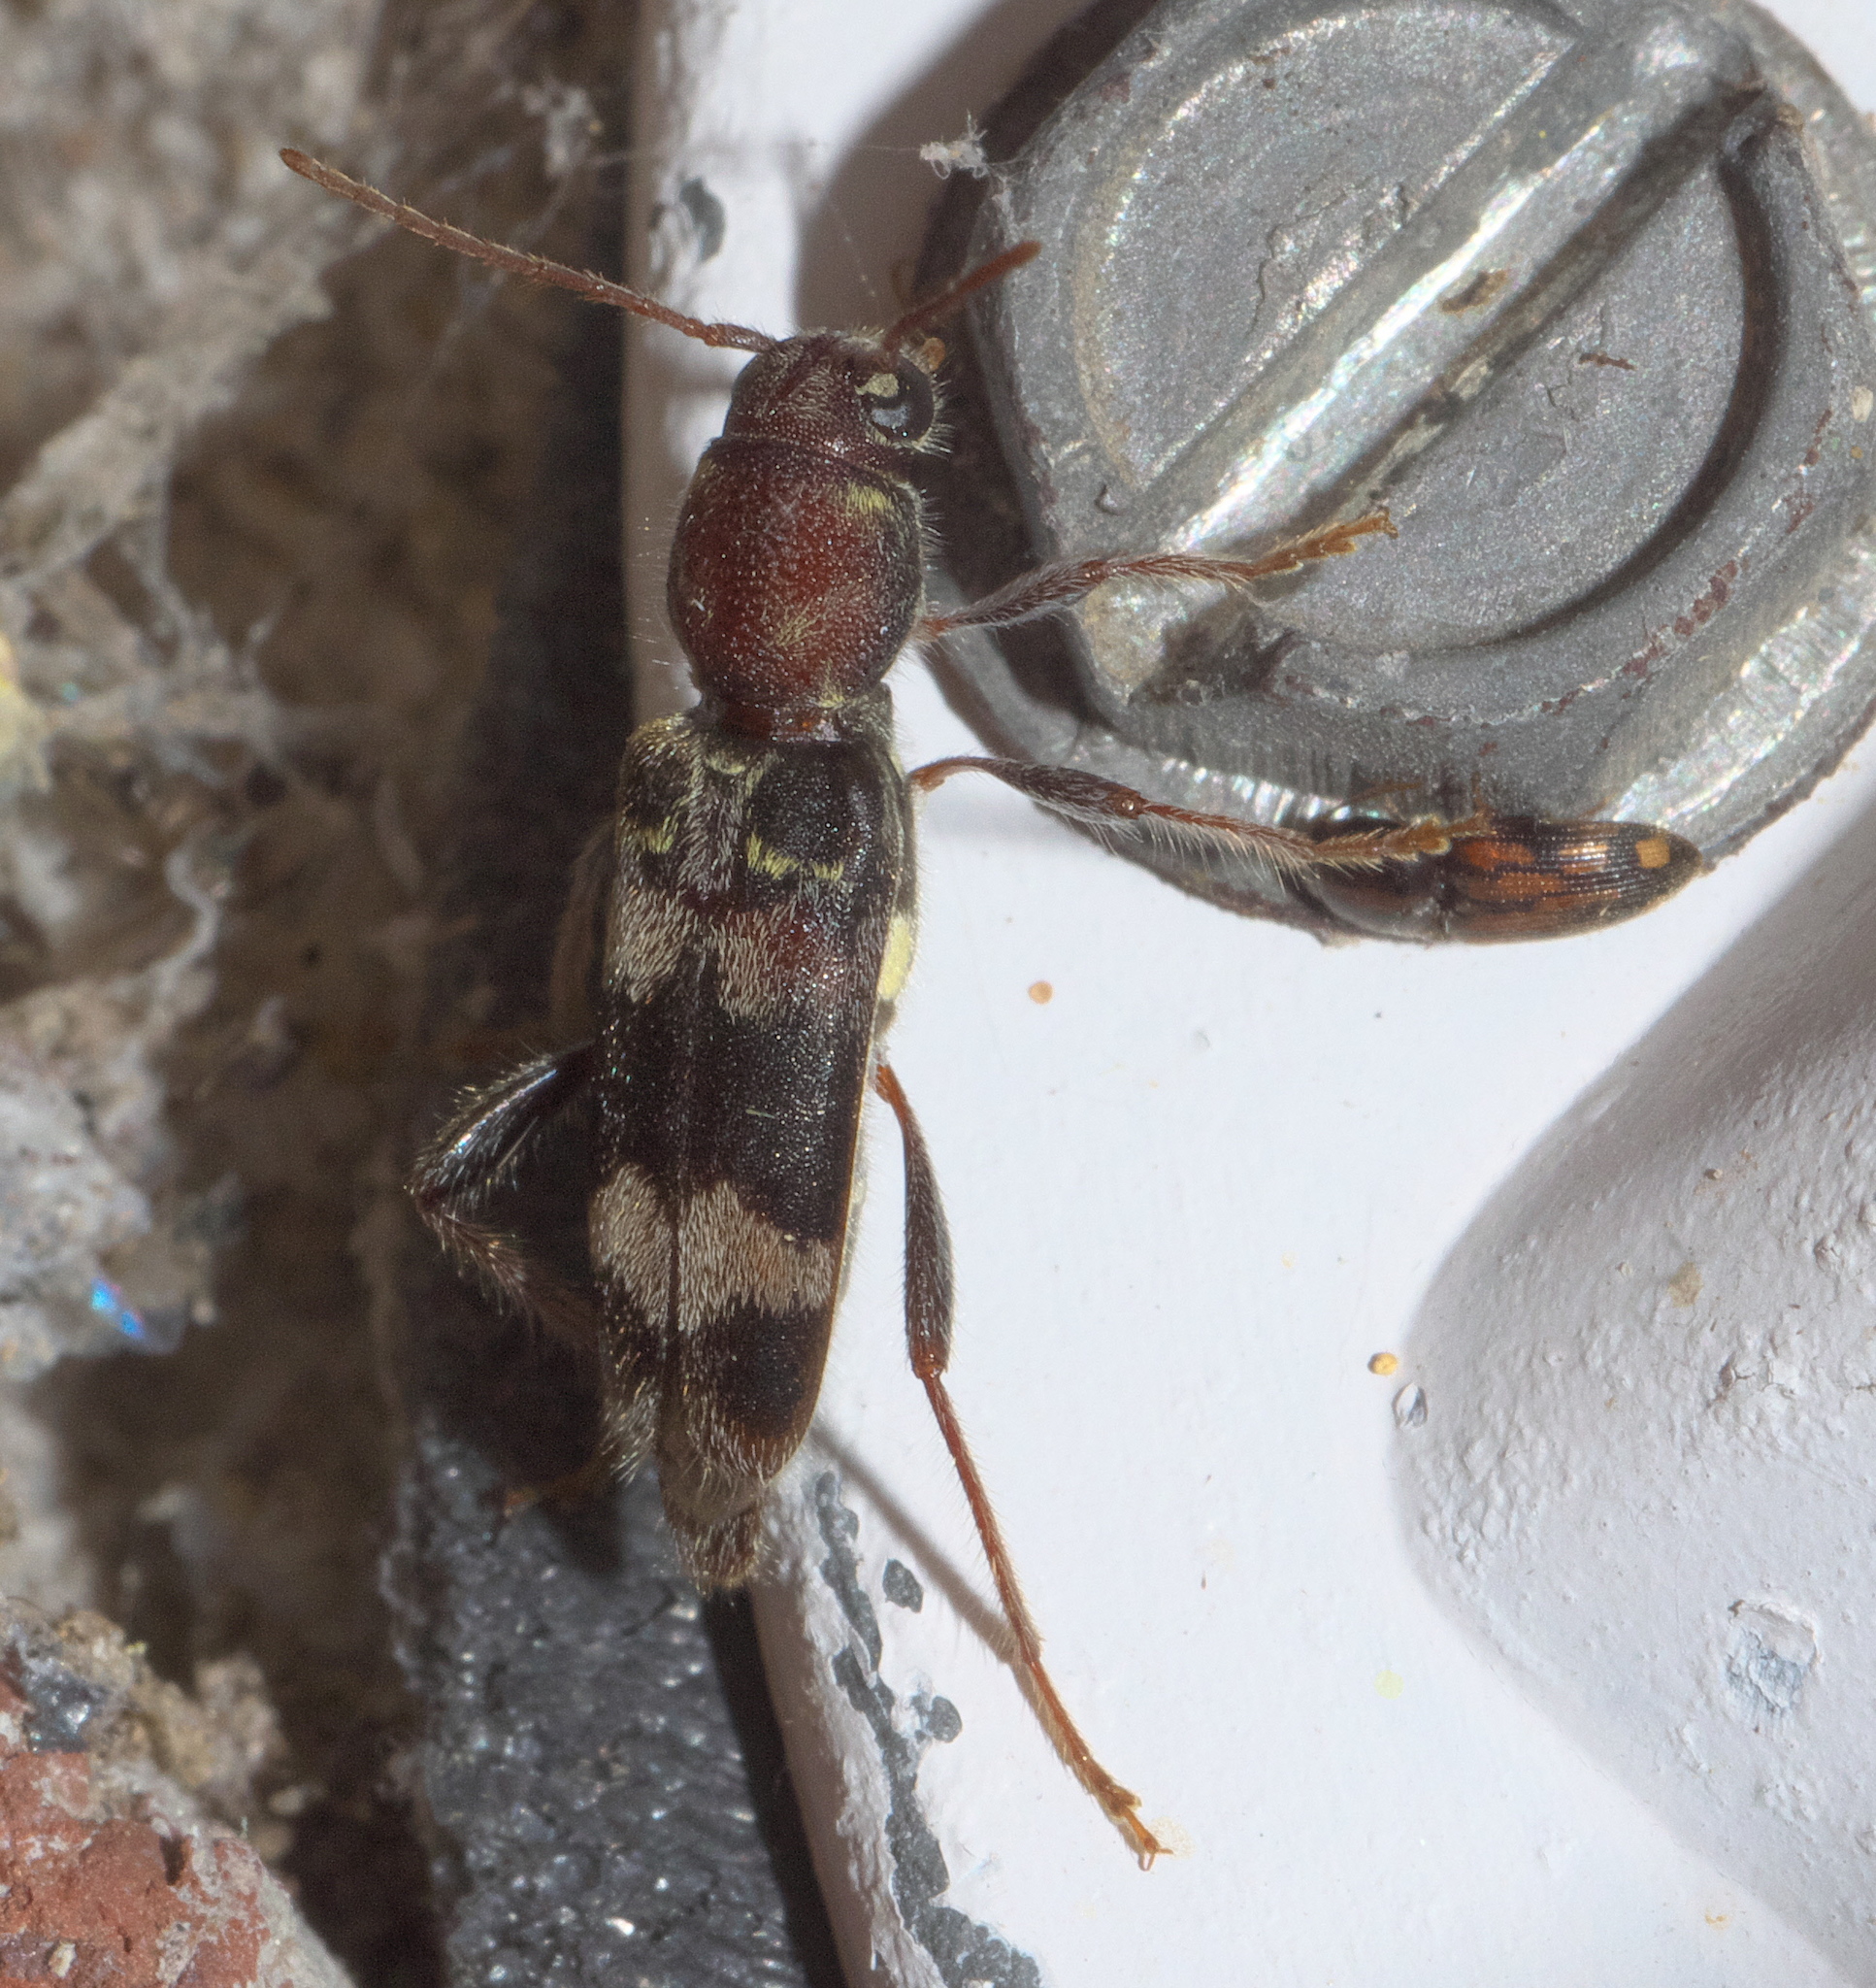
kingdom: Animalia
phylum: Arthropoda
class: Insecta
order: Coleoptera
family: Cerambycidae
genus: Xylotrechus
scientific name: Xylotrechus colonus
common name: Long-horned beetle
